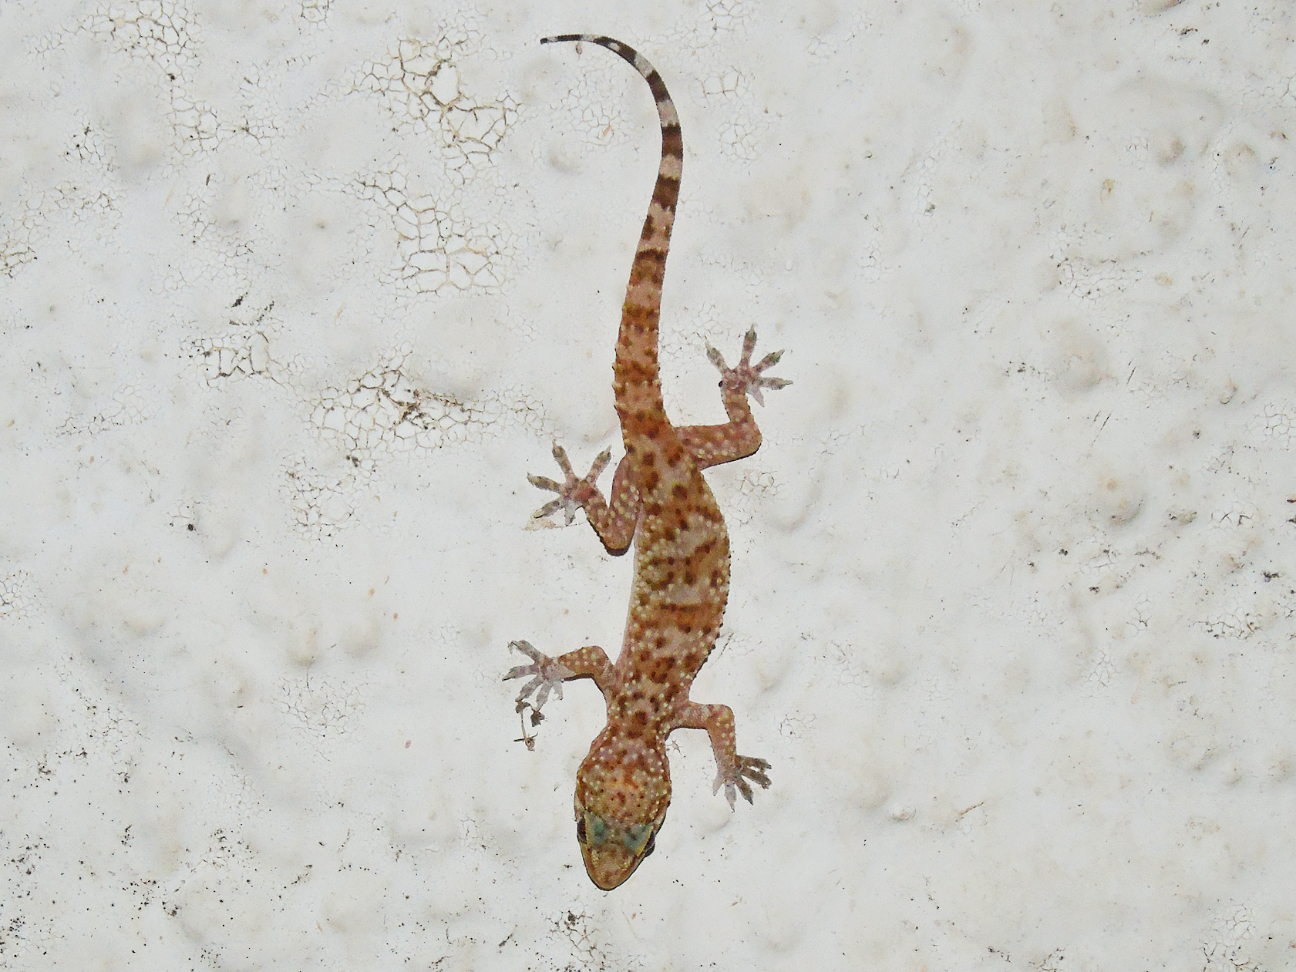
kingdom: Animalia
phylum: Chordata
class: Squamata
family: Gekkonidae
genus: Hemidactylus
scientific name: Hemidactylus turcicus
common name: Turkish gecko
